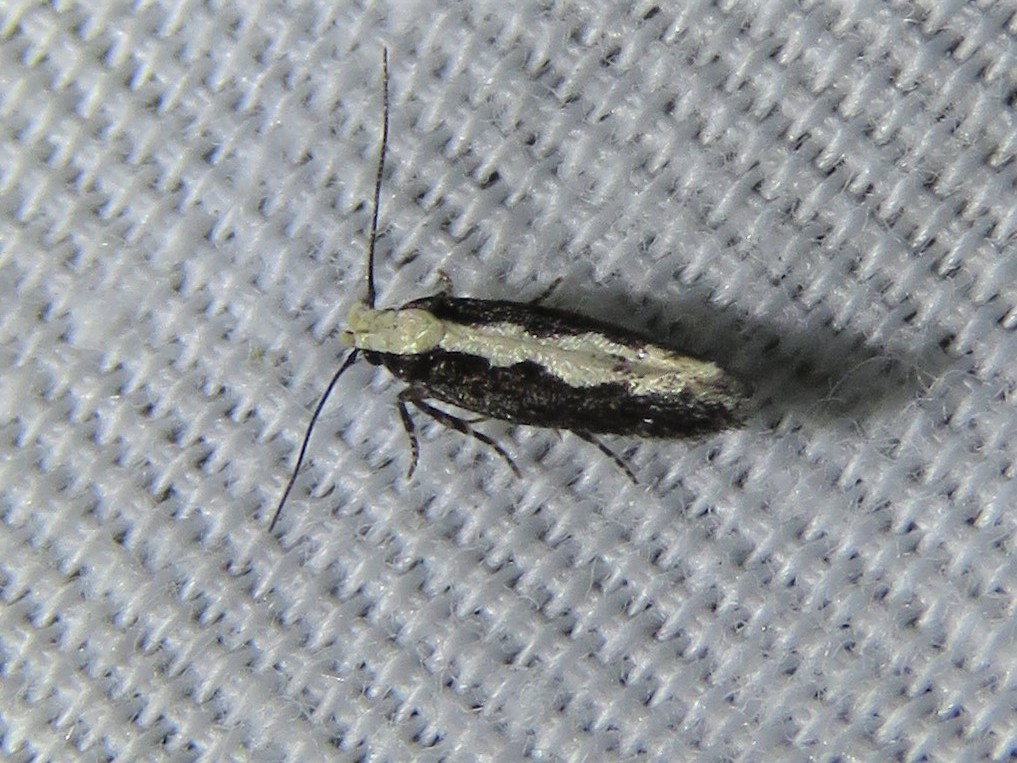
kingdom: Animalia
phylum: Arthropoda
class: Insecta
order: Lepidoptera
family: Gelechiidae
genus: Aristotelia
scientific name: Aristotelia corallina
